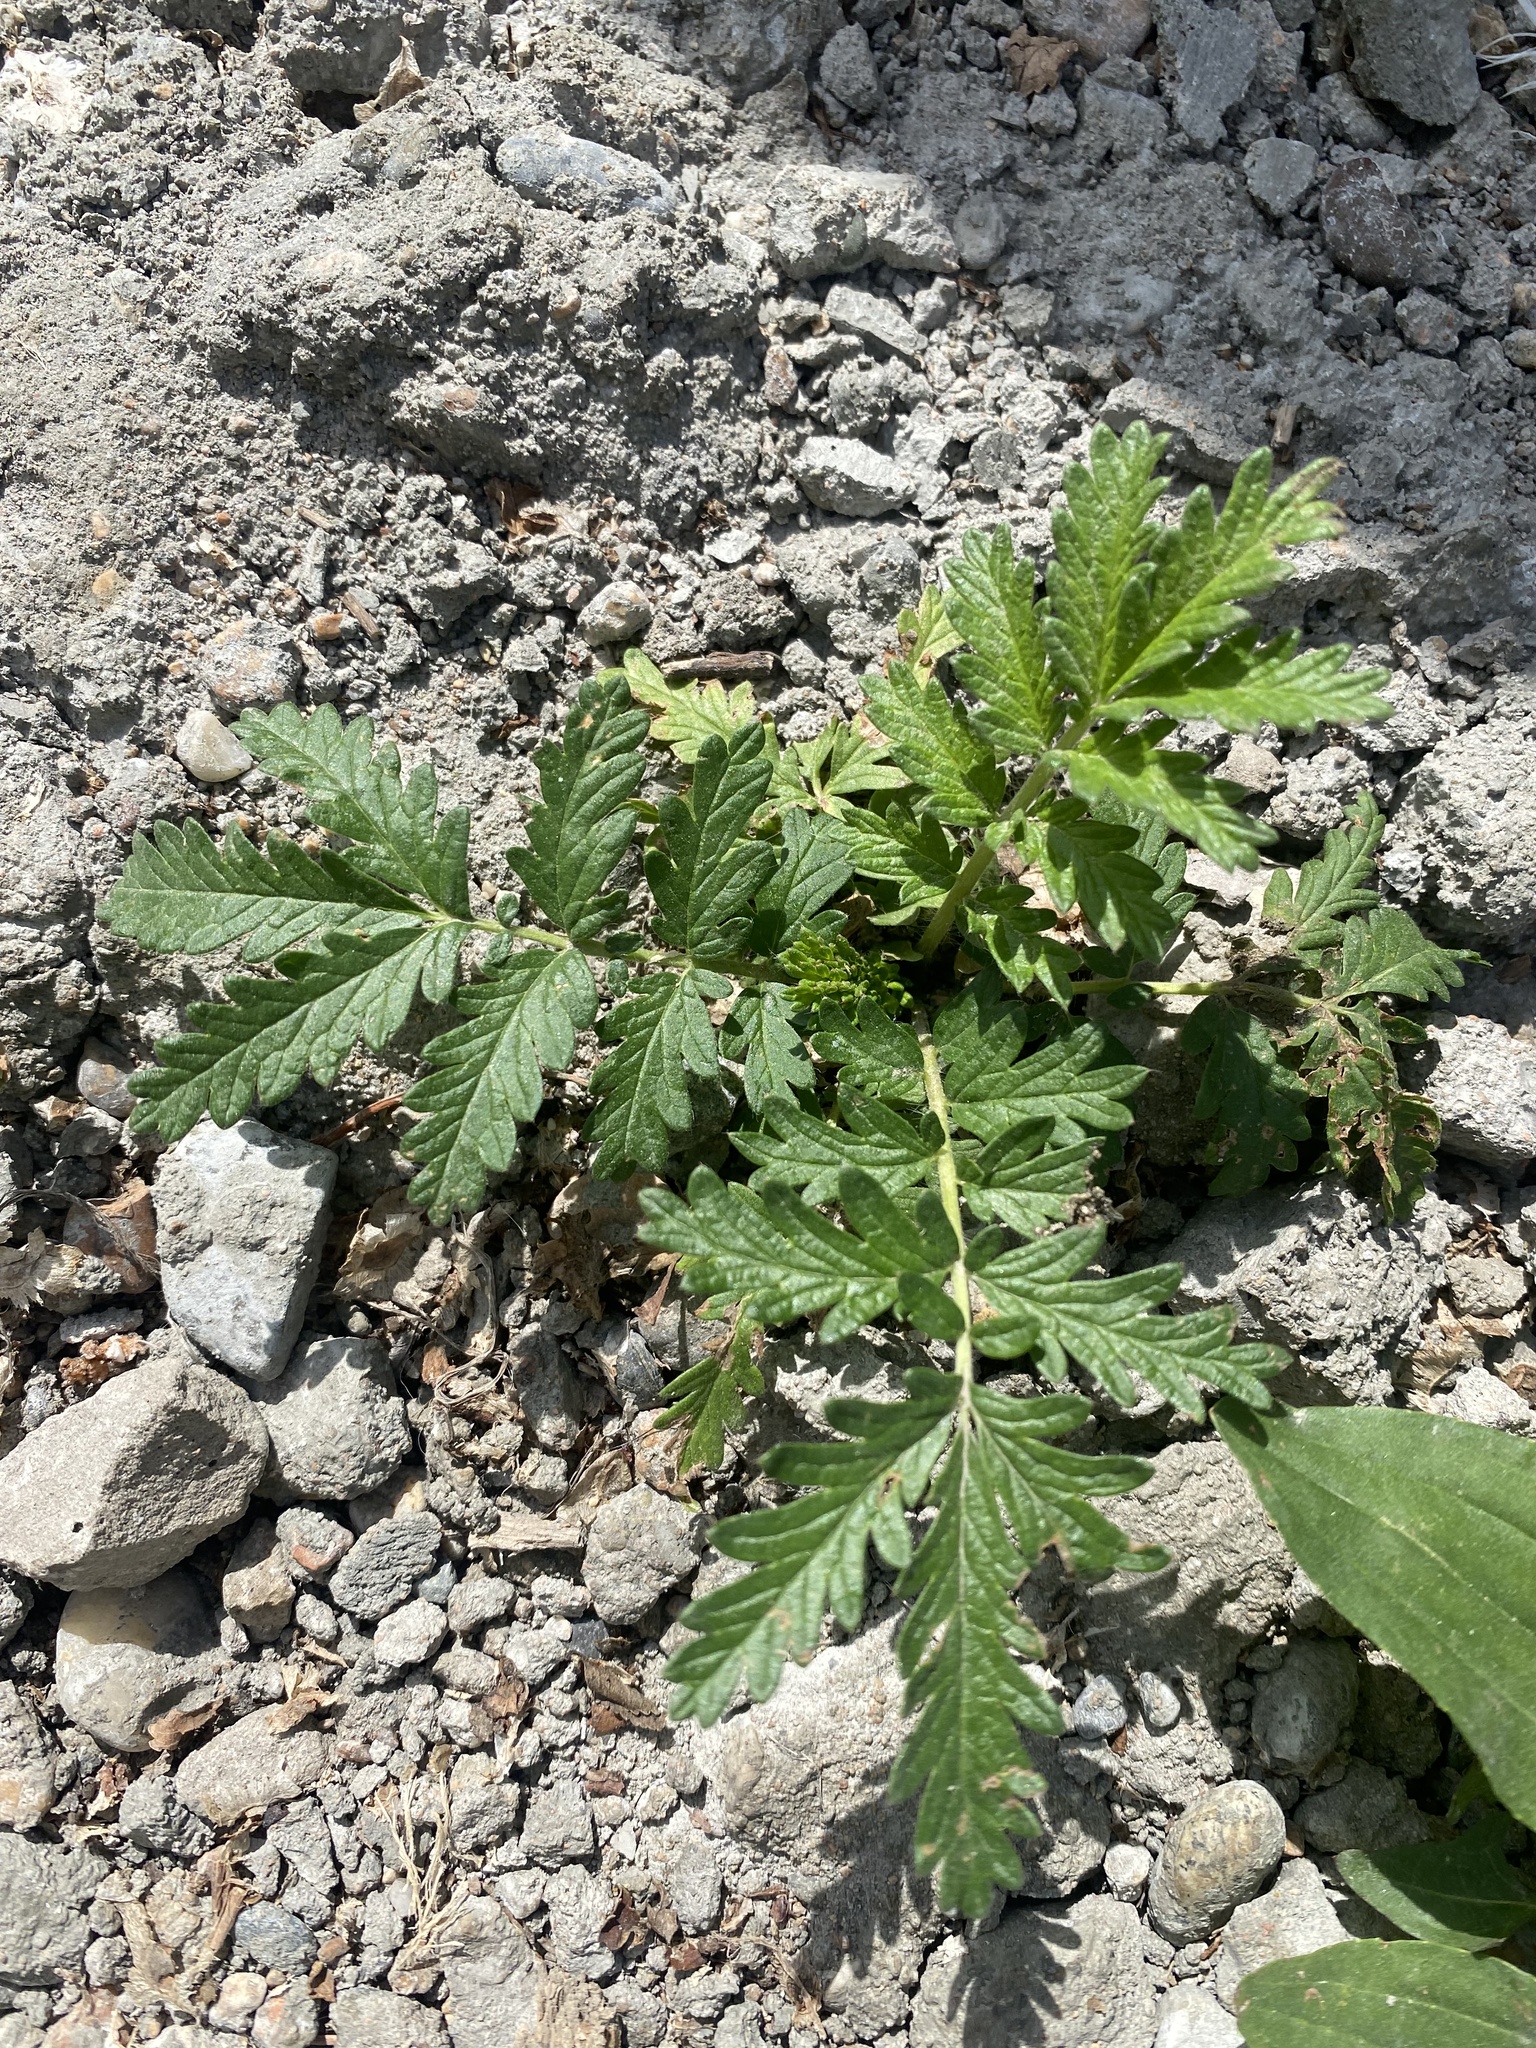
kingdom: Plantae
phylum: Tracheophyta
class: Magnoliopsida
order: Rosales
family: Rosaceae
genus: Potentilla
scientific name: Potentilla tanacetifolia
